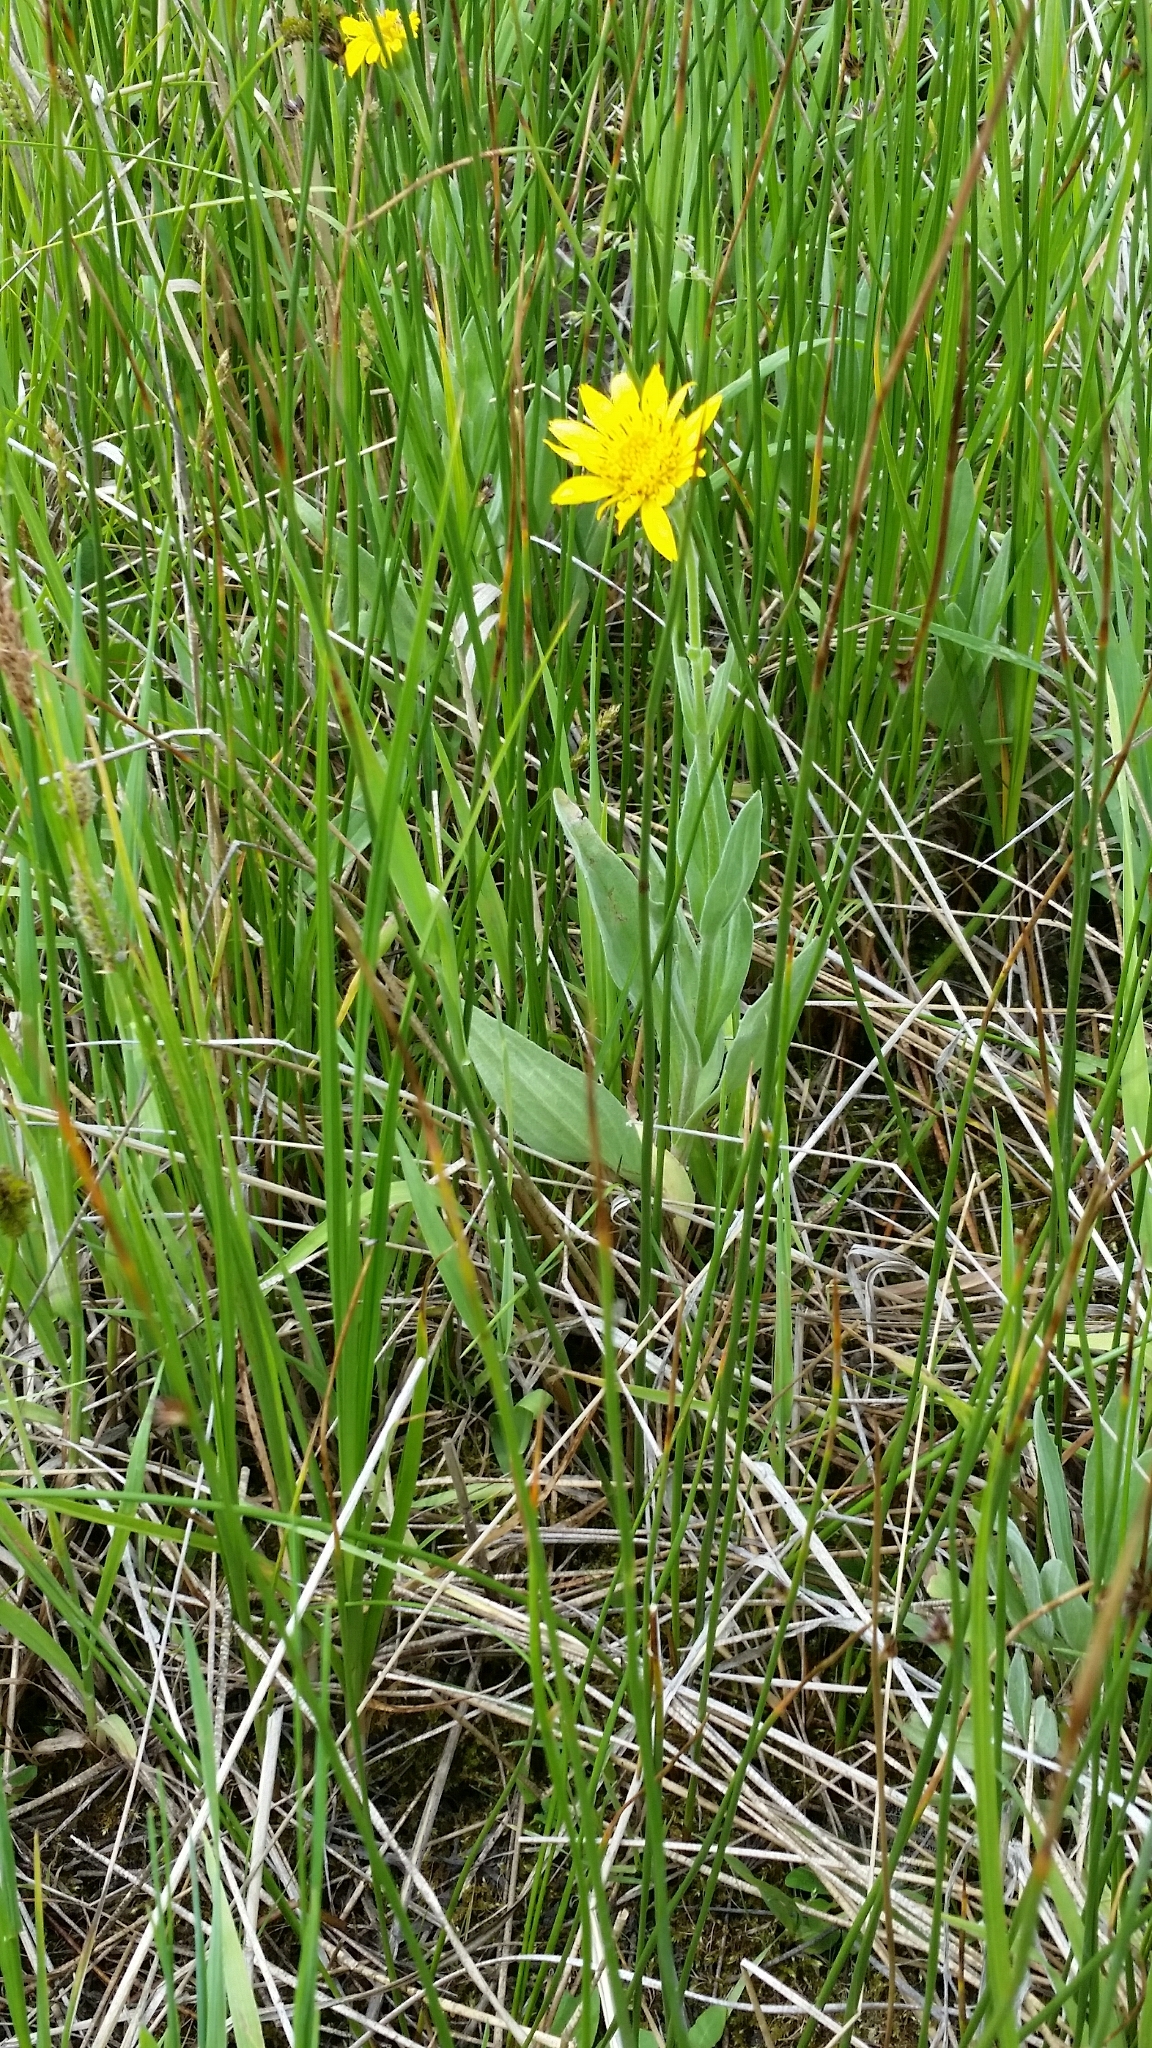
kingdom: Plantae
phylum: Tracheophyta
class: Magnoliopsida
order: Asterales
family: Asteraceae
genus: Arnica
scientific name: Arnica chamissonis
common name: Leafy arnica
